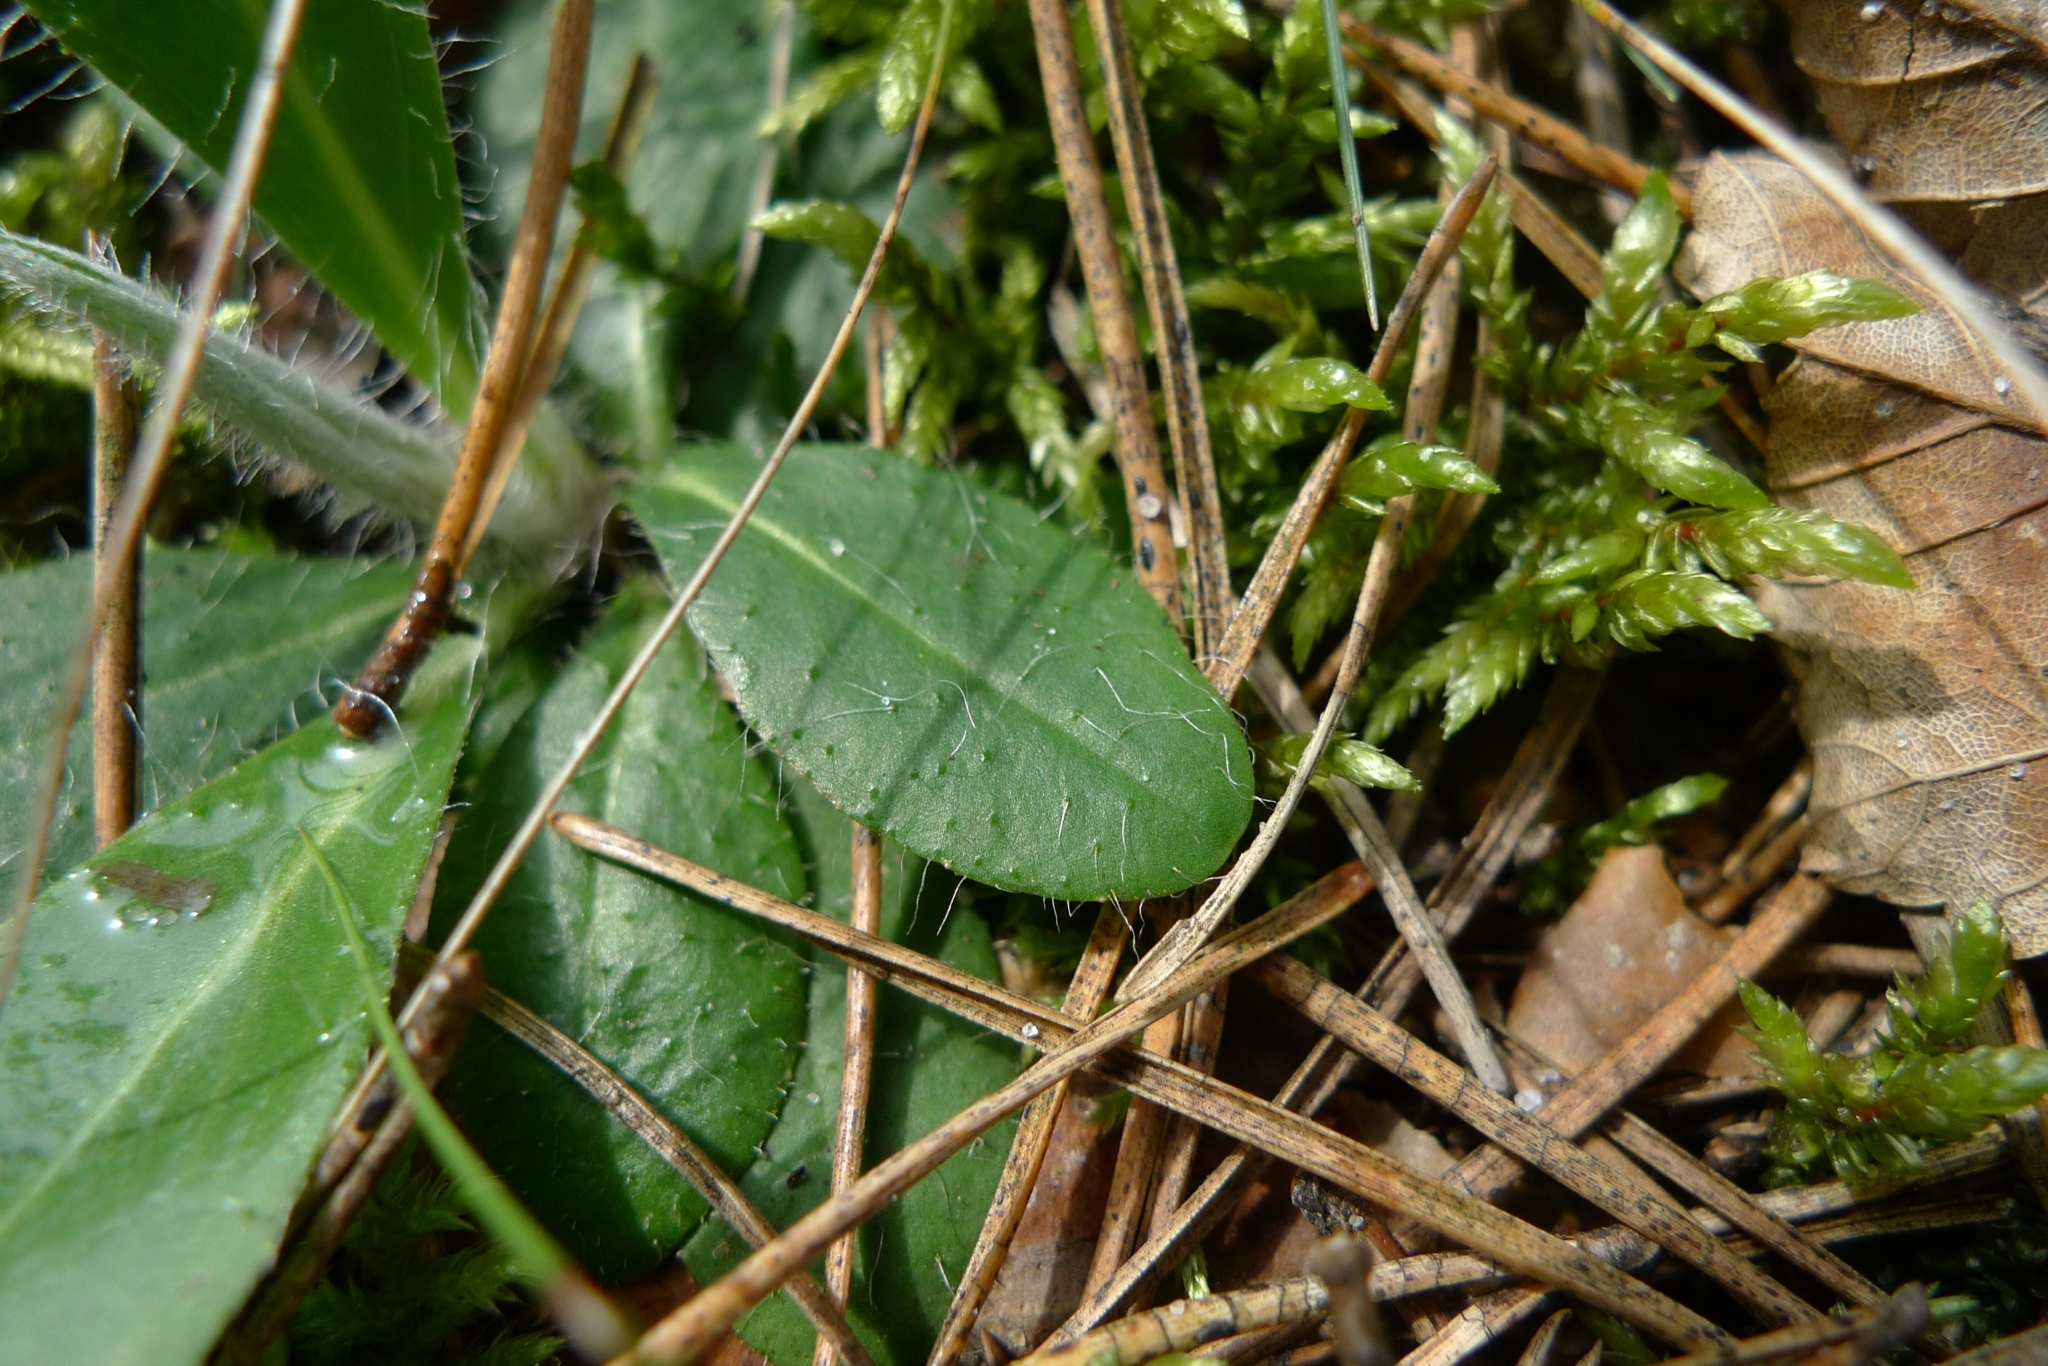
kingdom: Plantae
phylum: Tracheophyta
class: Magnoliopsida
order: Asterales
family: Asteraceae
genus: Pilosella
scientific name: Pilosella officinarum
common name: Mouse-ear hawkweed
